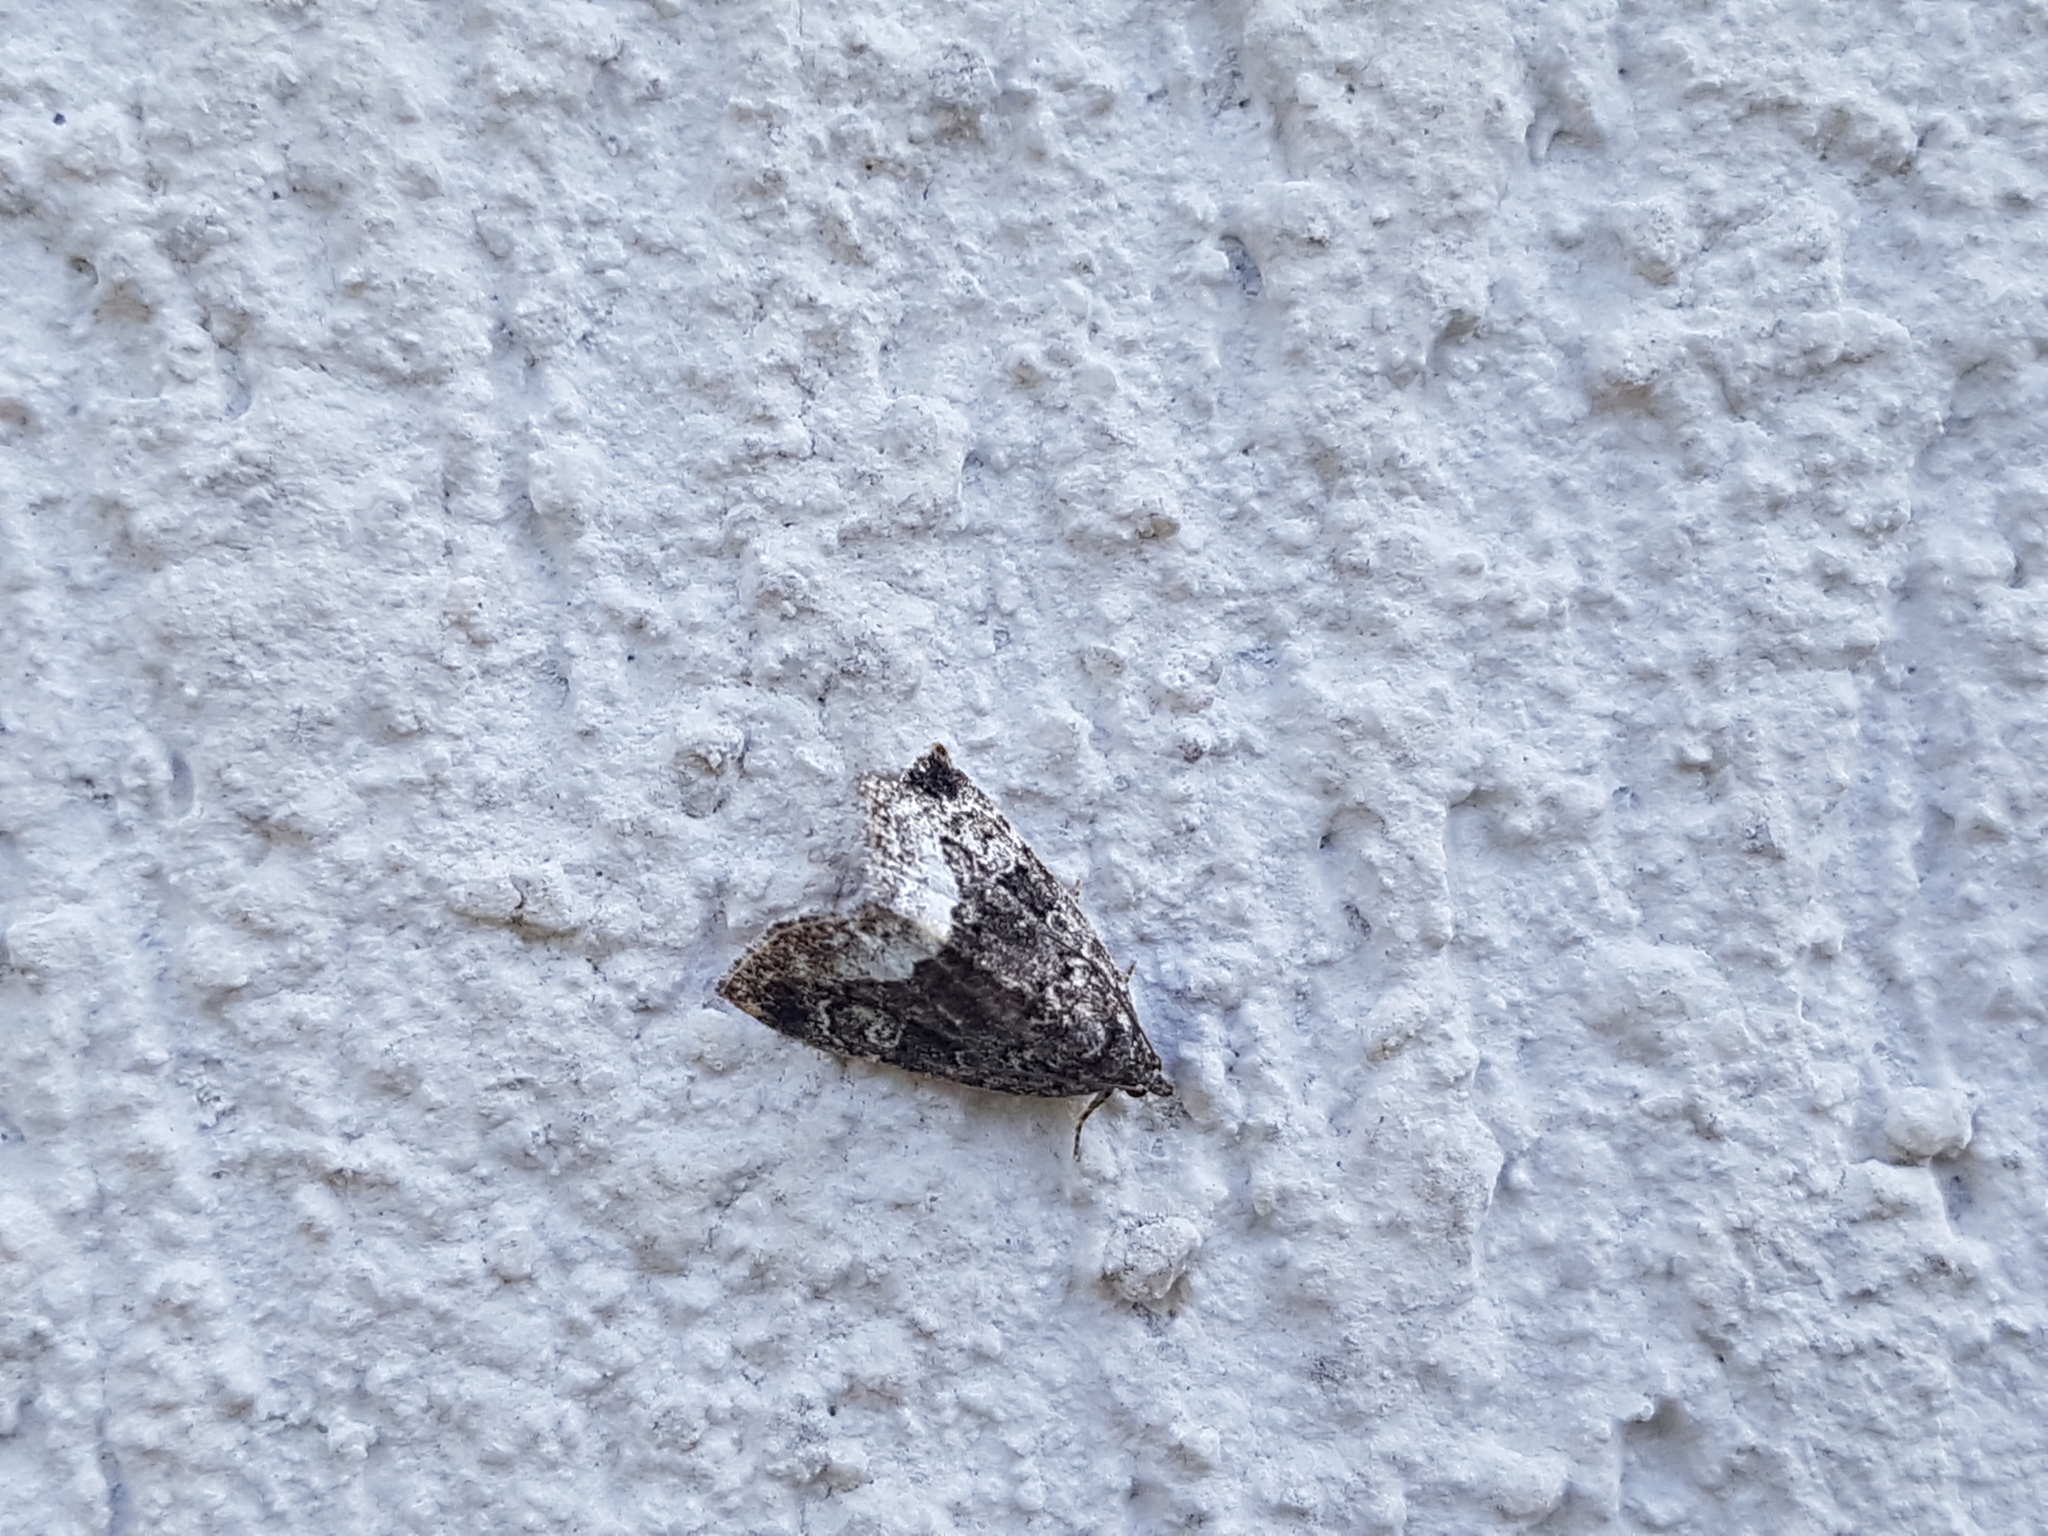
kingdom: Animalia
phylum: Arthropoda
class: Insecta
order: Lepidoptera
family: Noctuidae
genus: Deltote
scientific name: Deltote pygarga
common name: Marbled white spot
